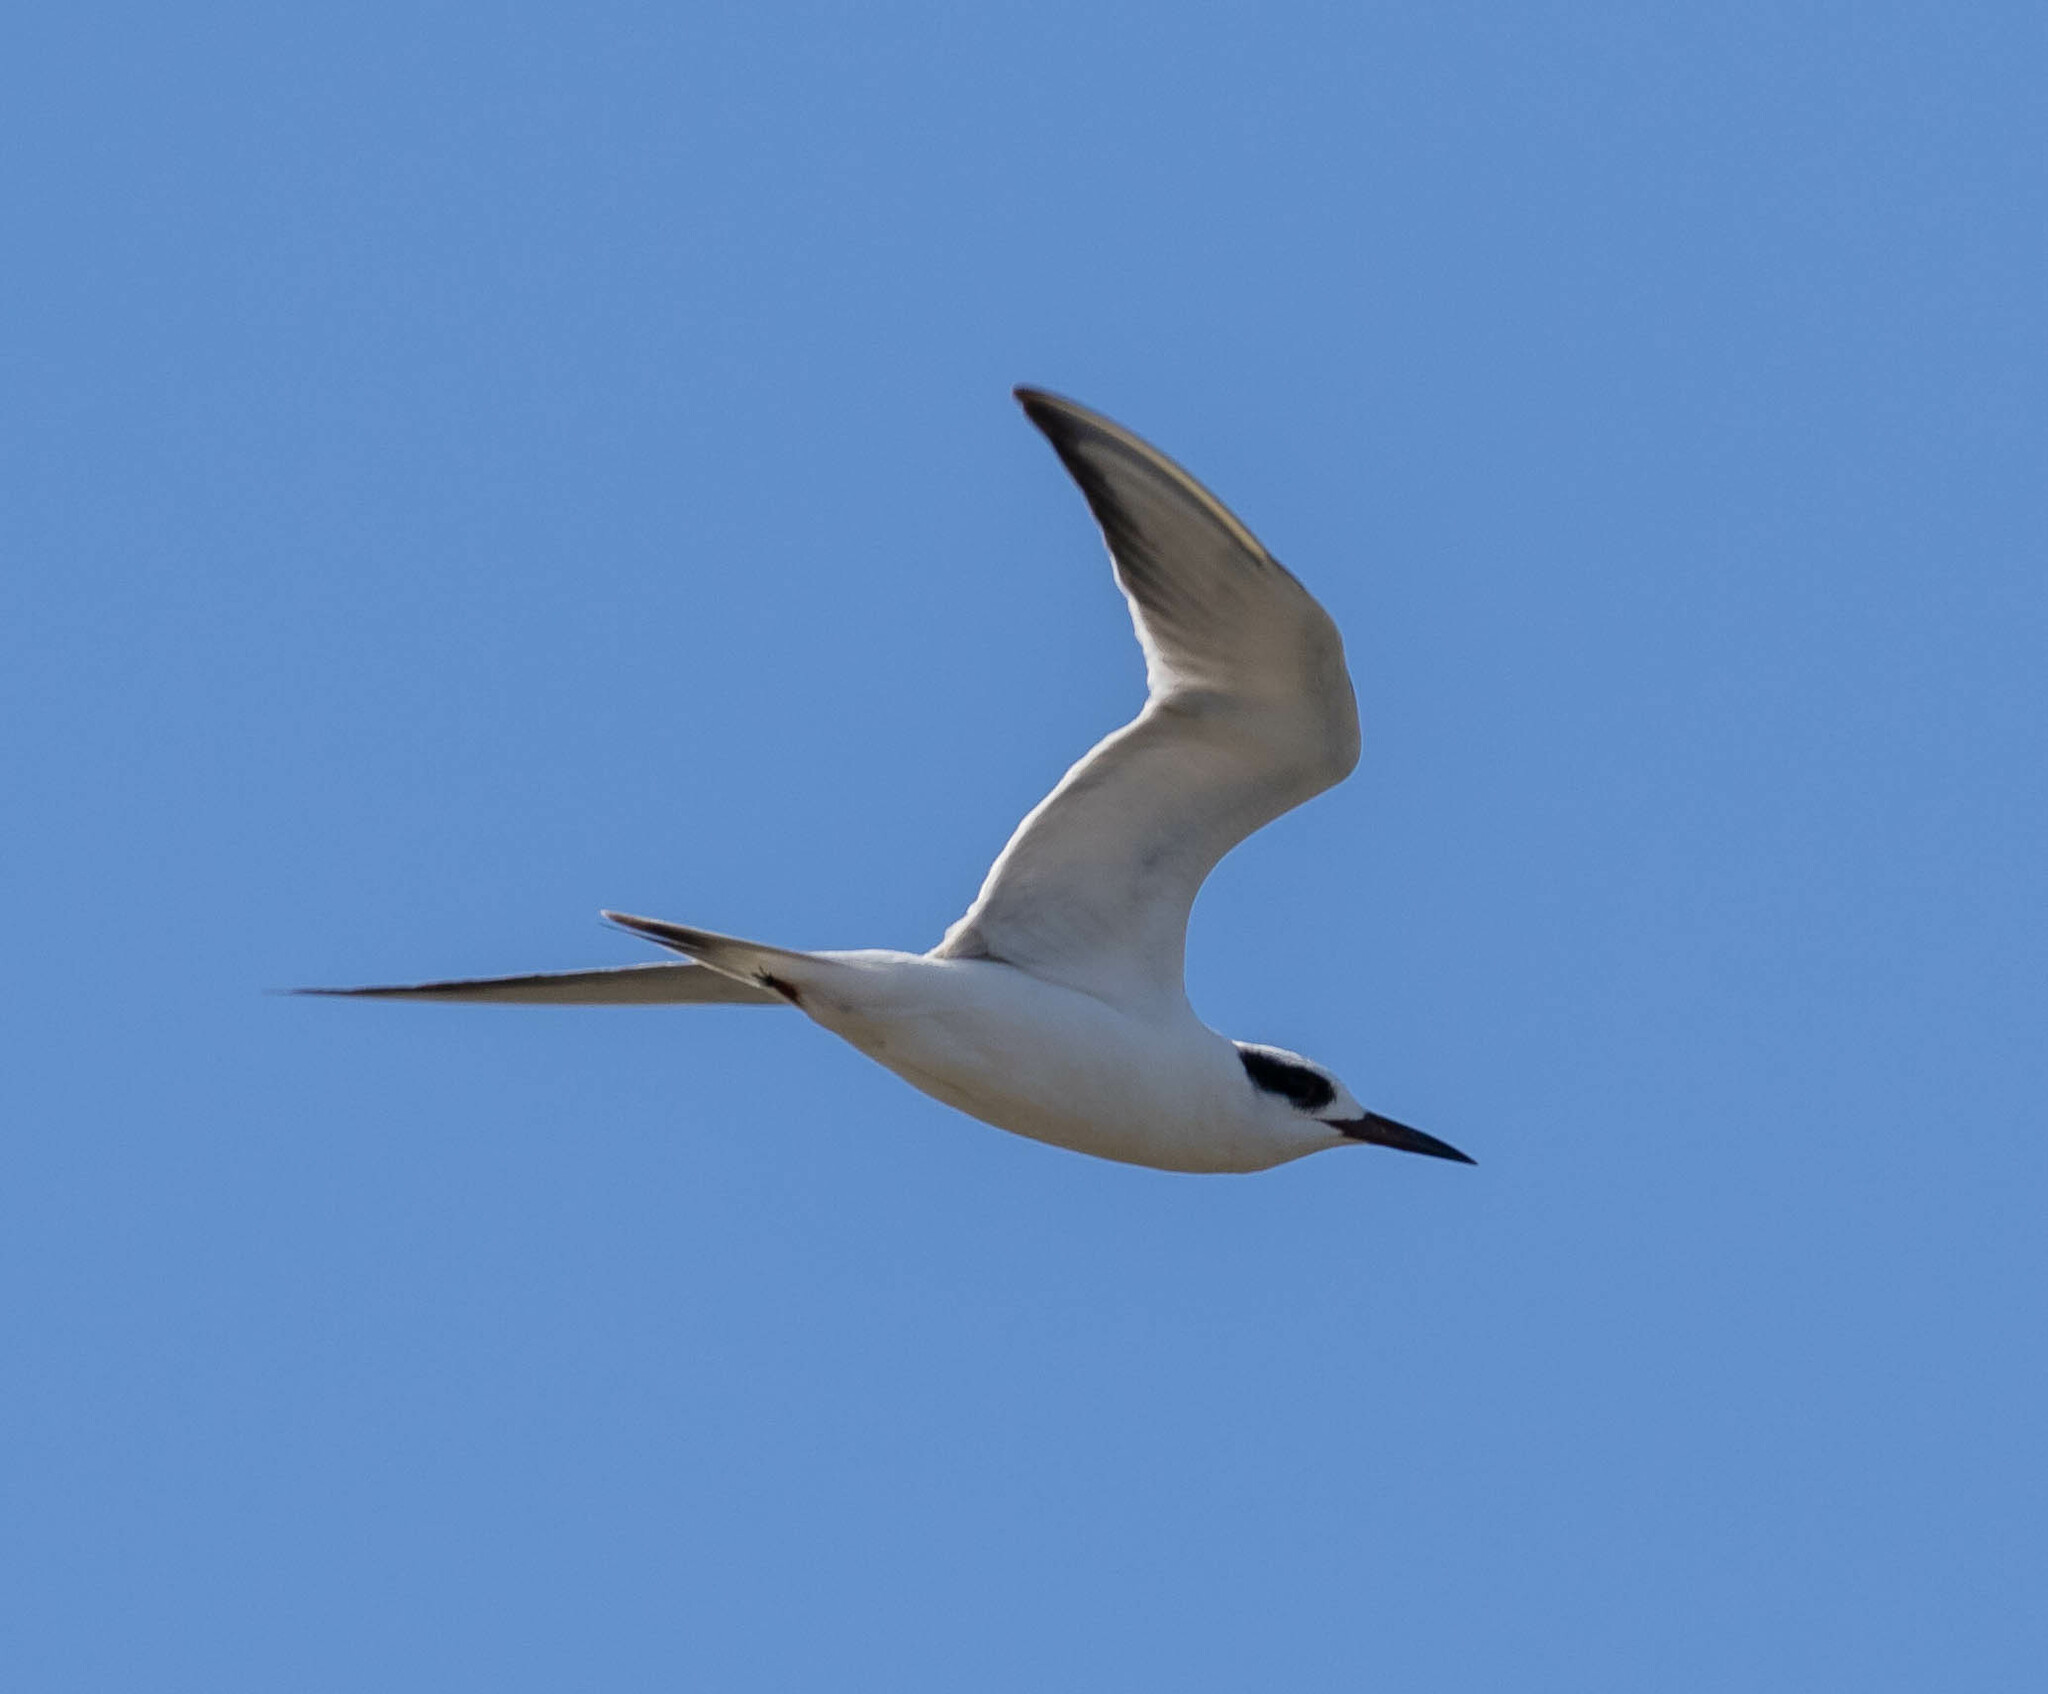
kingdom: Animalia
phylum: Chordata
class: Aves
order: Charadriiformes
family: Laridae
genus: Sterna
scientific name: Sterna forsteri
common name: Forster's tern
